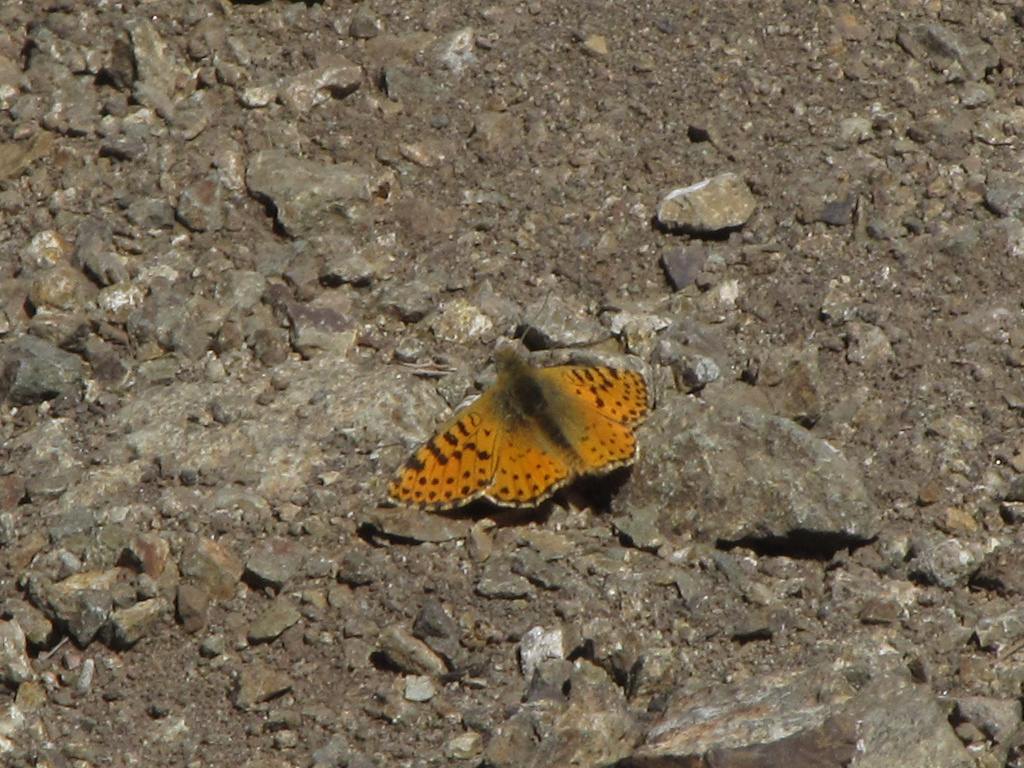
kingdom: Animalia
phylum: Arthropoda
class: Insecta
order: Lepidoptera
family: Nymphalidae
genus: Issoria
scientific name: Issoria Yramea lathonoides
